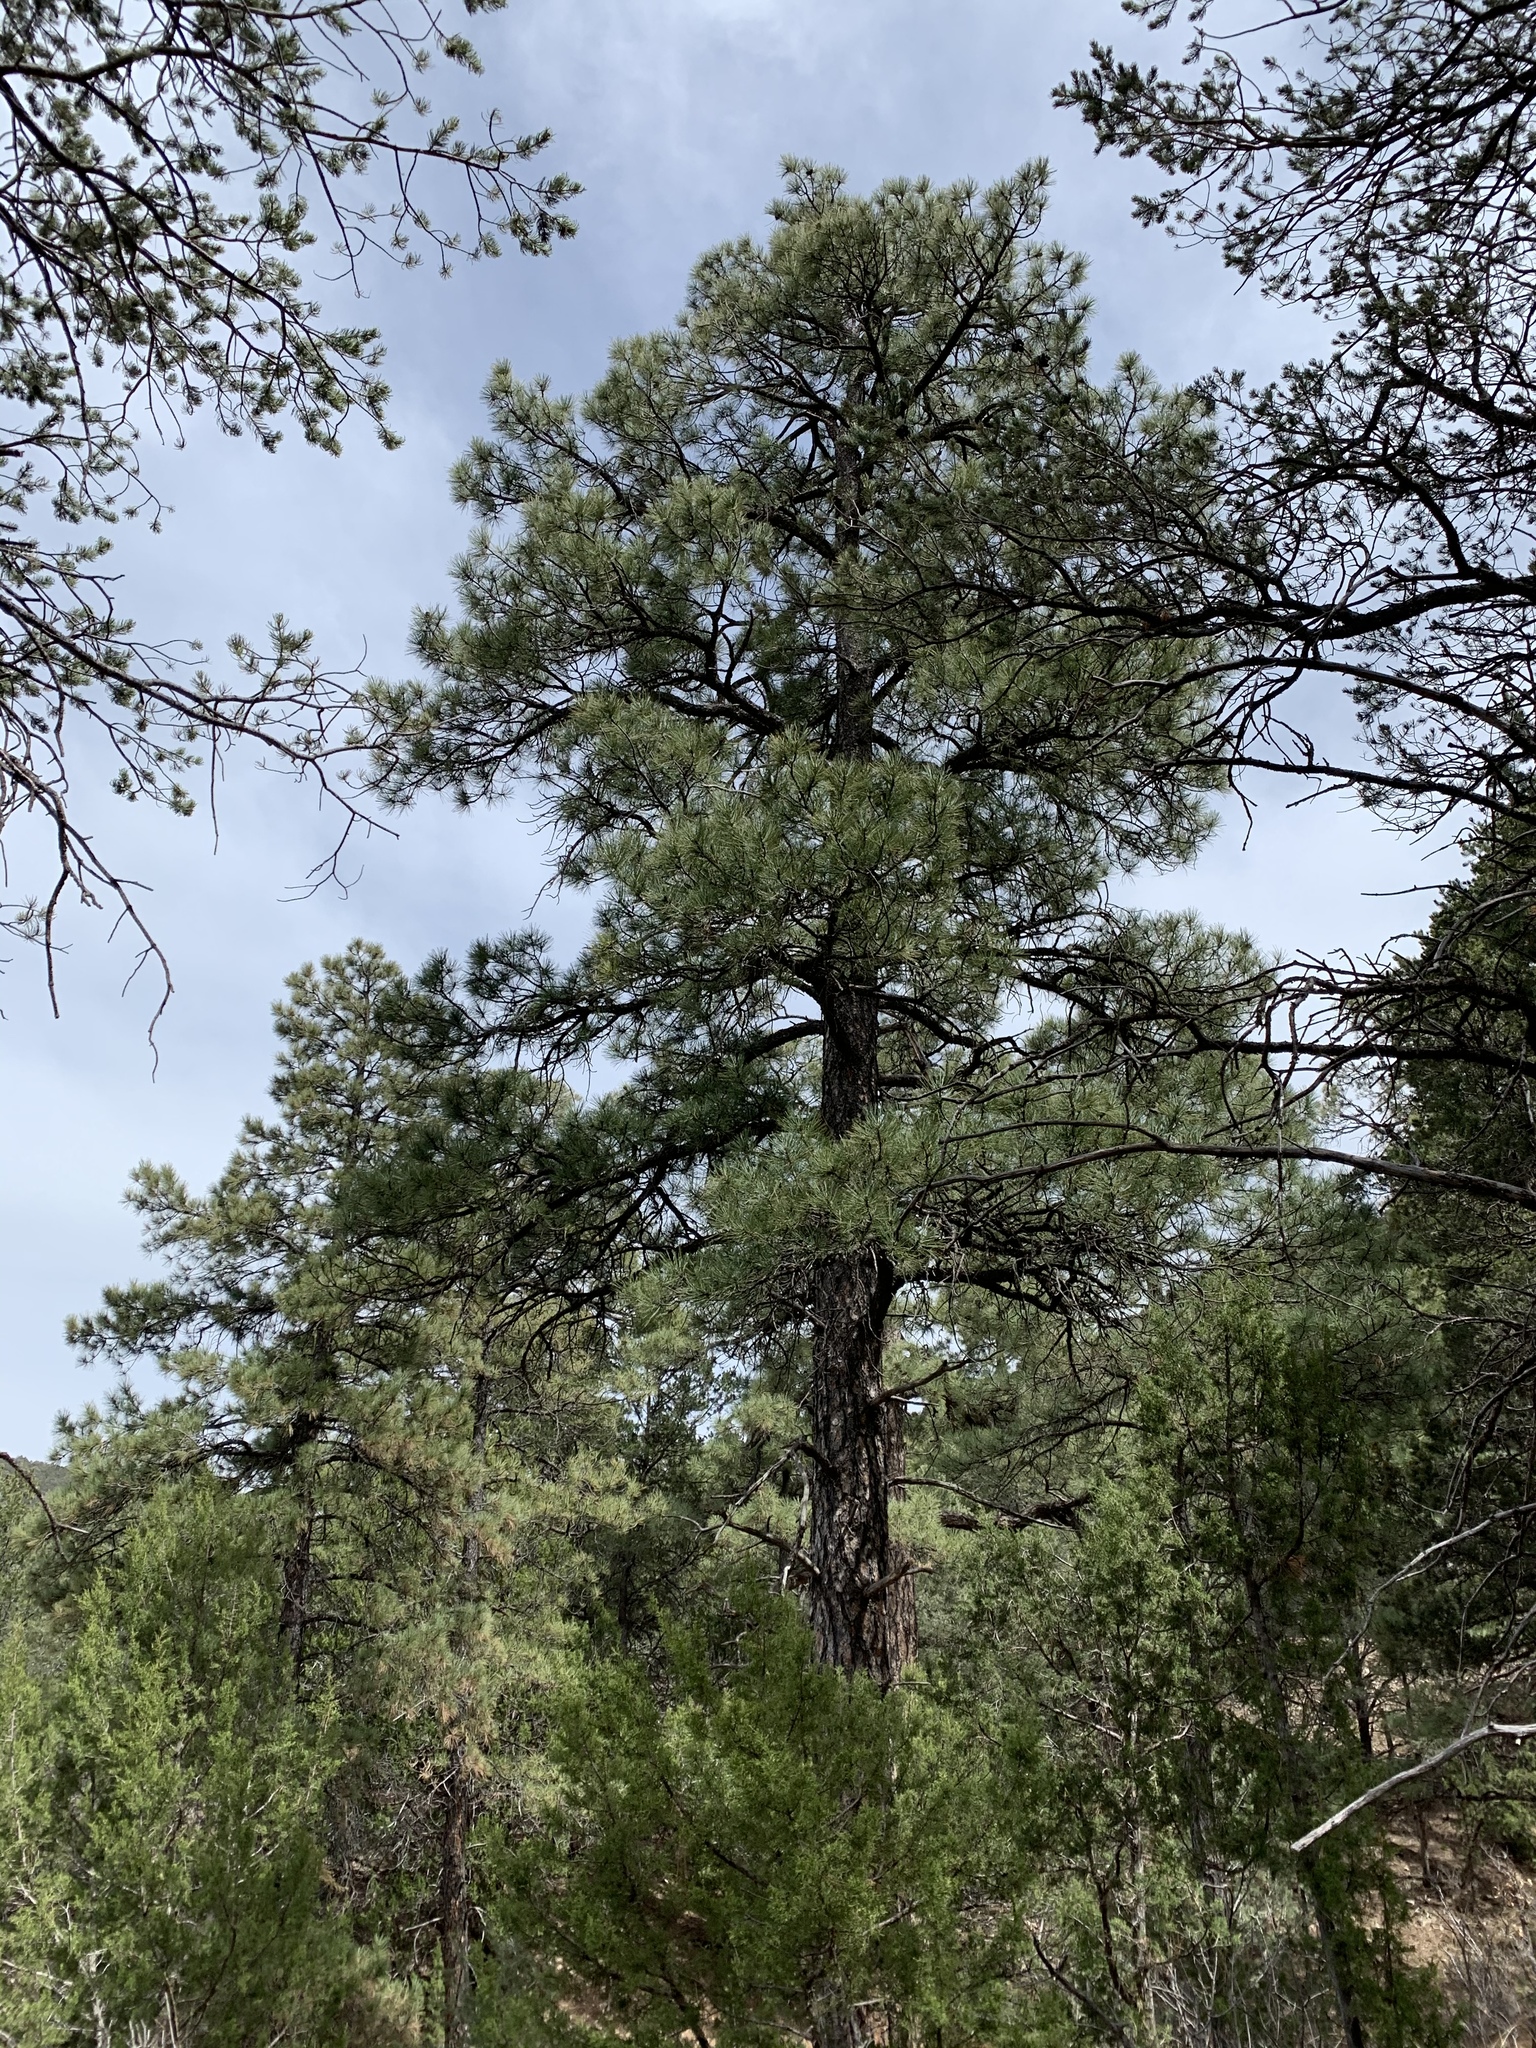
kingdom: Plantae
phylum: Tracheophyta
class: Pinopsida
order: Pinales
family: Pinaceae
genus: Pinus
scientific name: Pinus ponderosa
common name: Western yellow-pine
